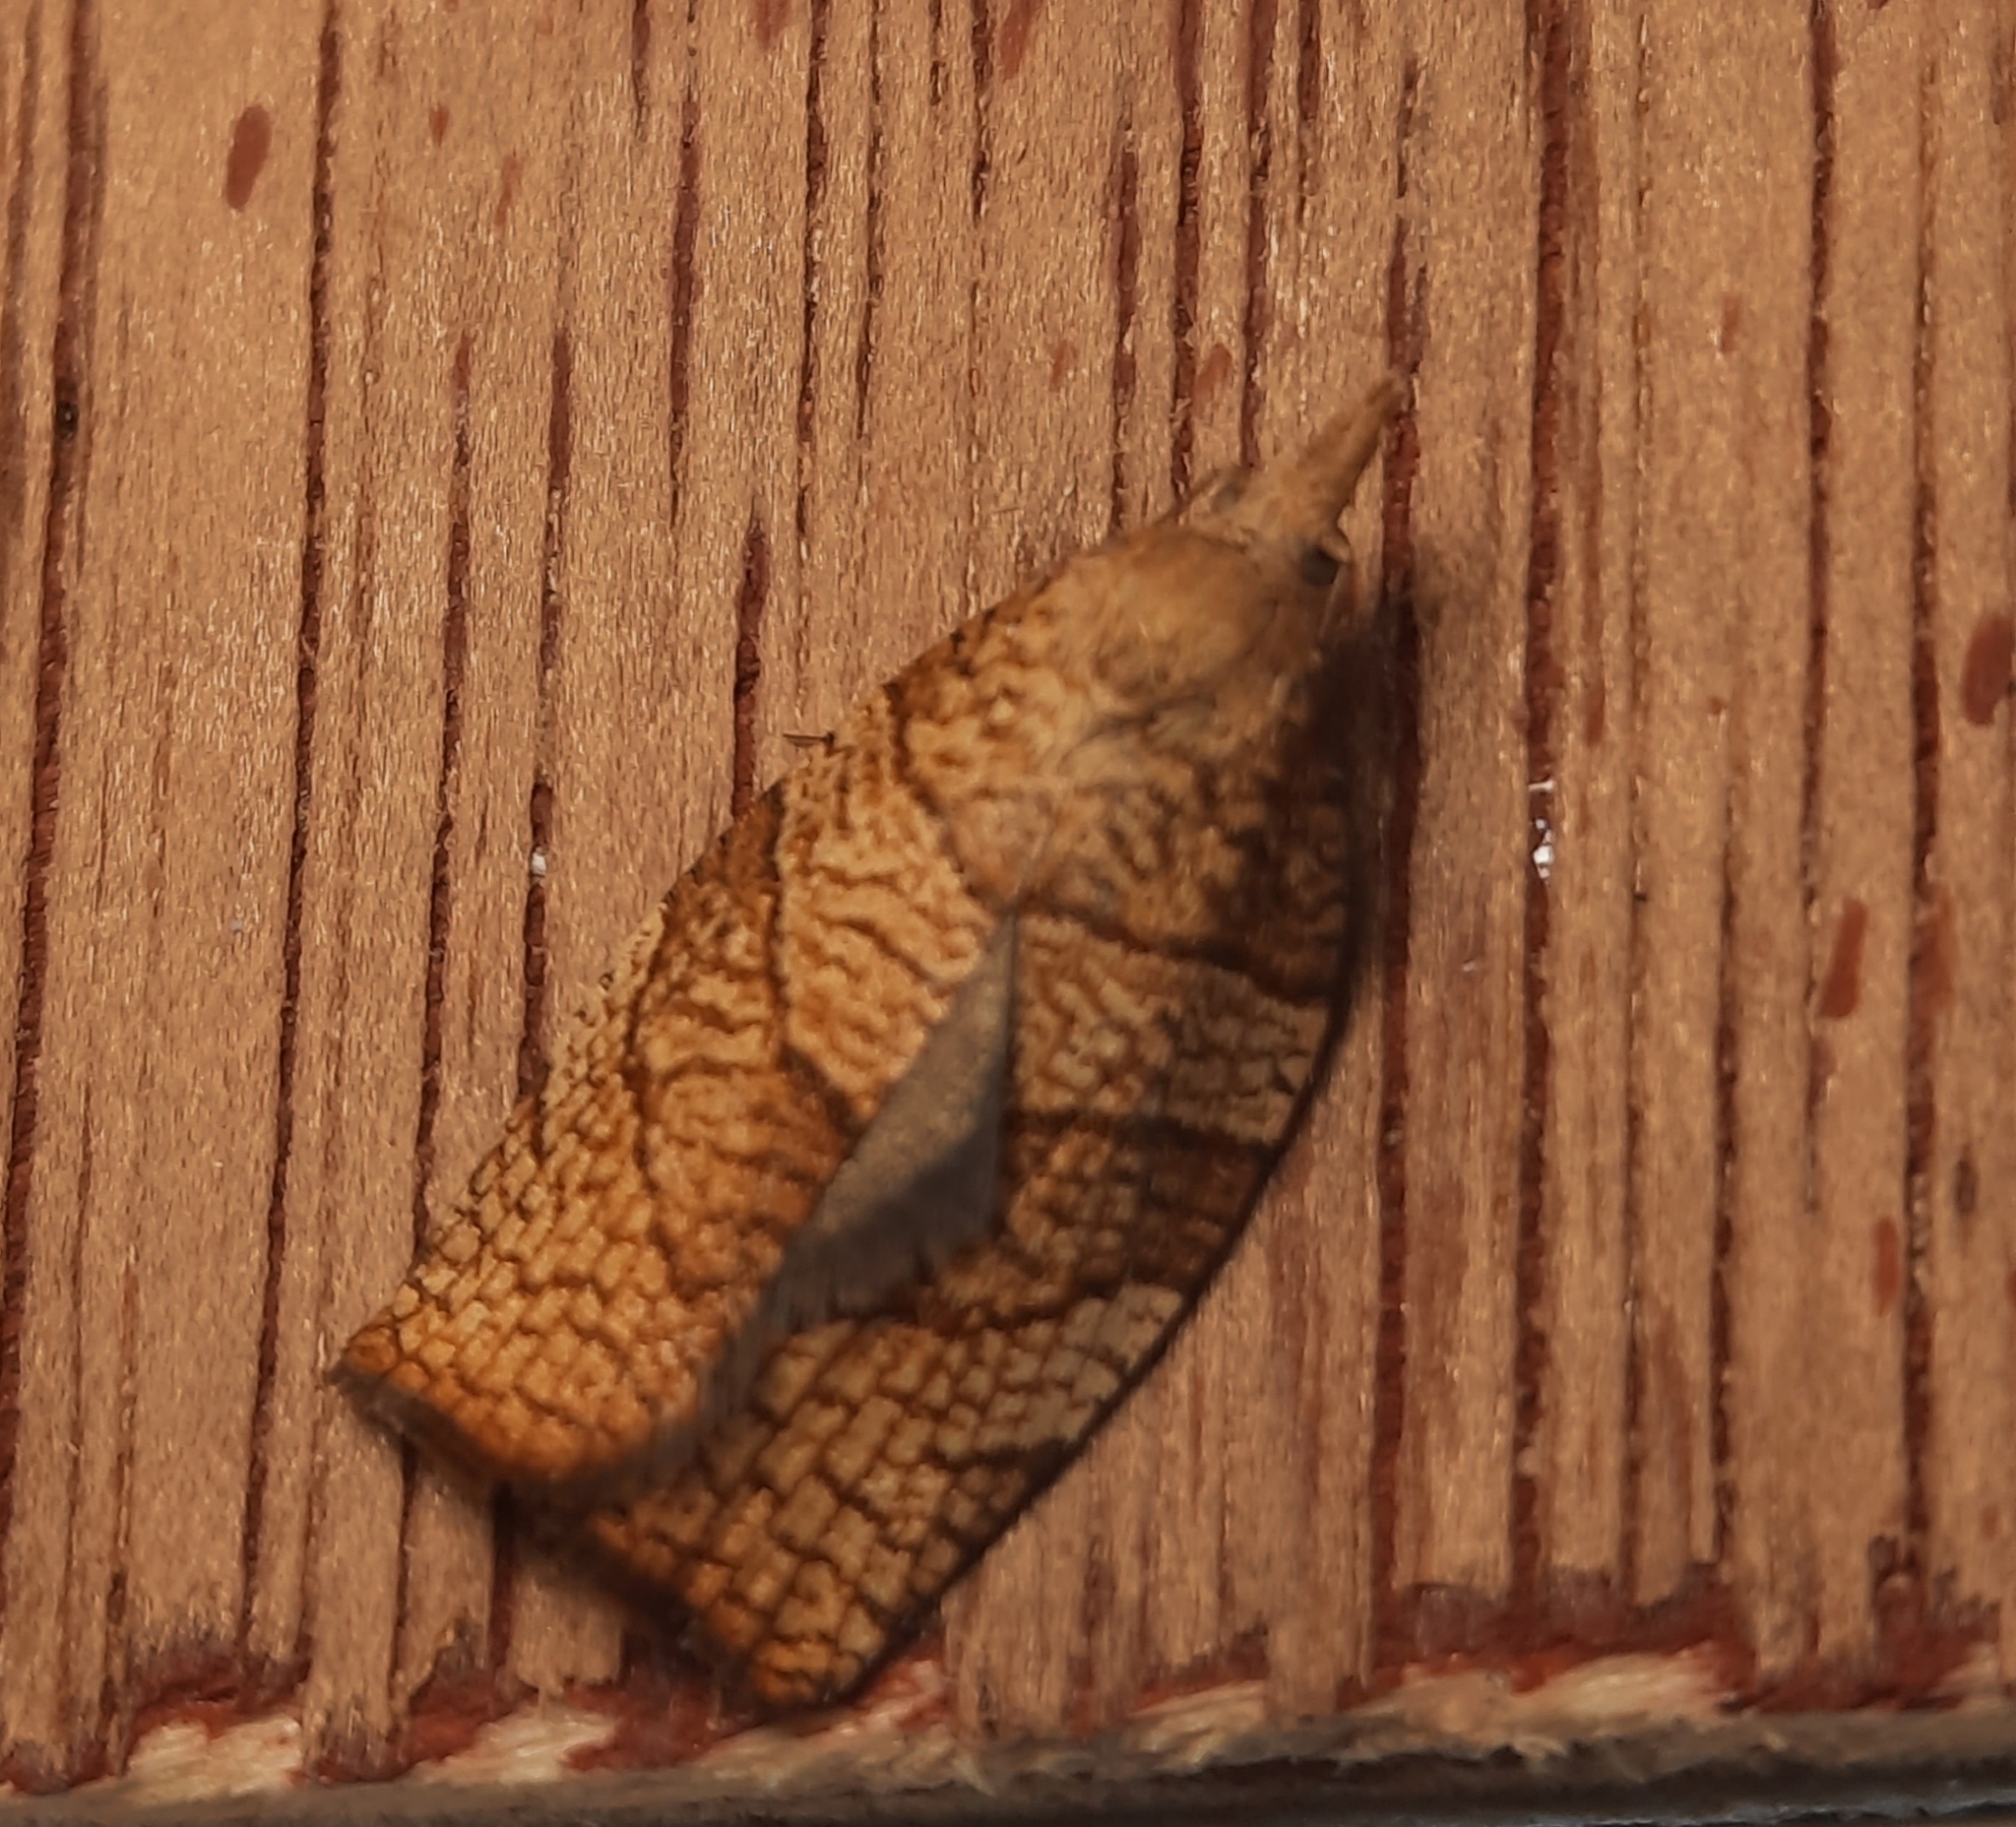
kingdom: Animalia
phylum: Arthropoda
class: Insecta
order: Lepidoptera
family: Tortricidae
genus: Pandemis
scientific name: Pandemis corylana
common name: Chequered fruit-tree tortrix
